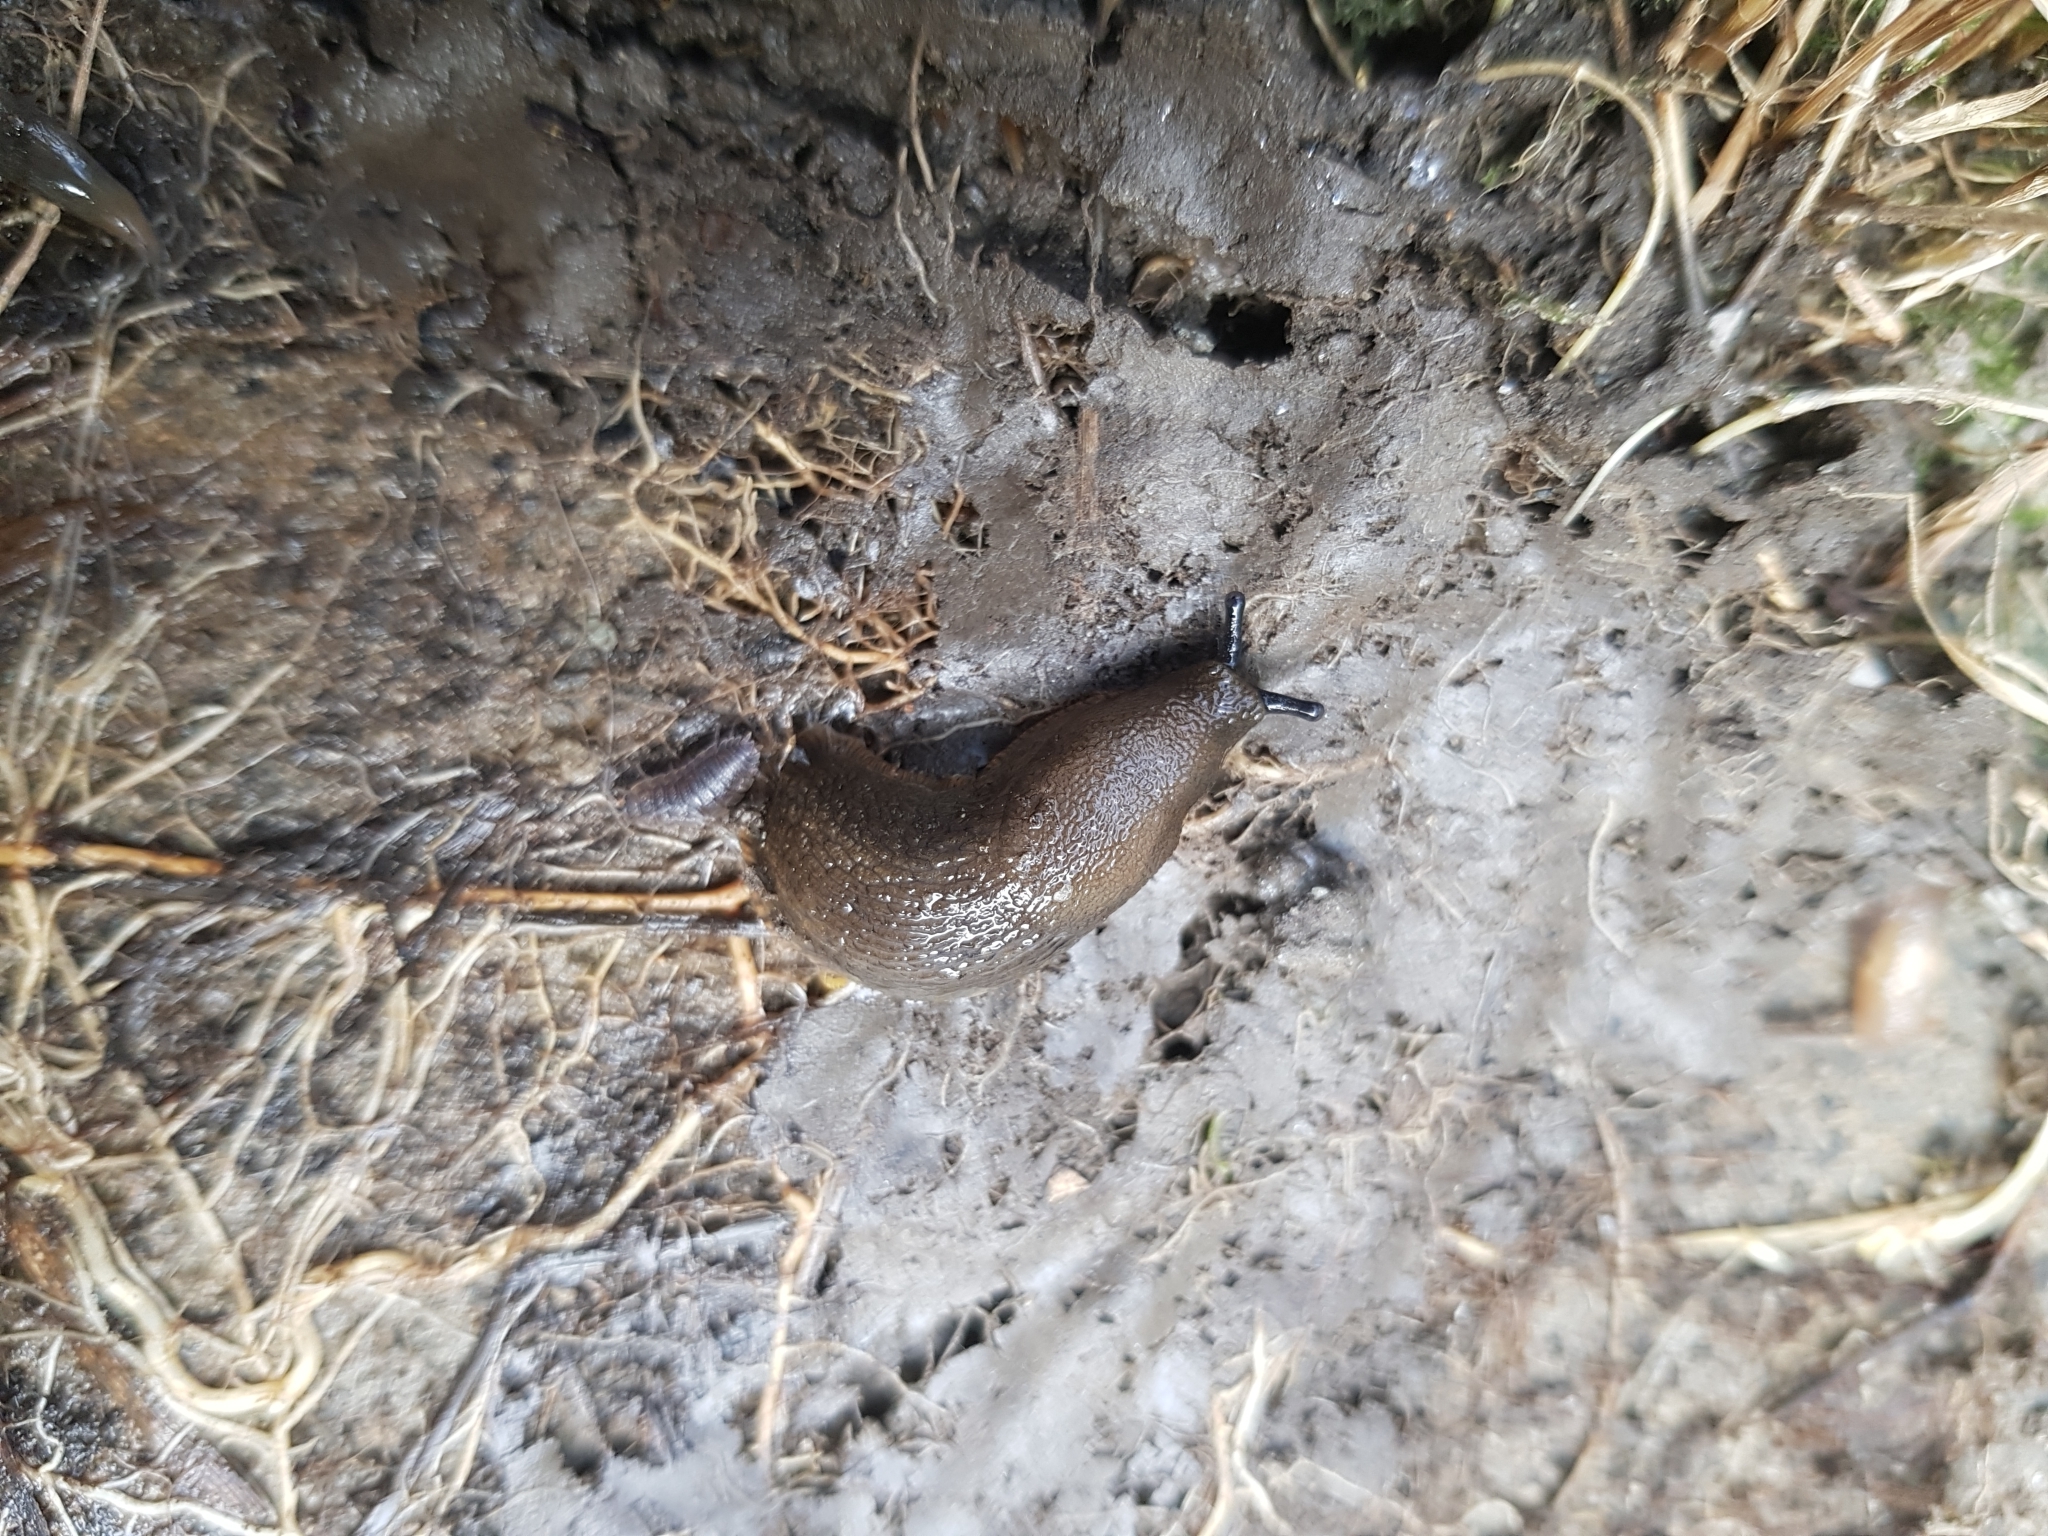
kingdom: Animalia
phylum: Mollusca
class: Gastropoda
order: Stylommatophora
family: Arionidae
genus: Arion
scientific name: Arion distinctus
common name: Darkface arion
